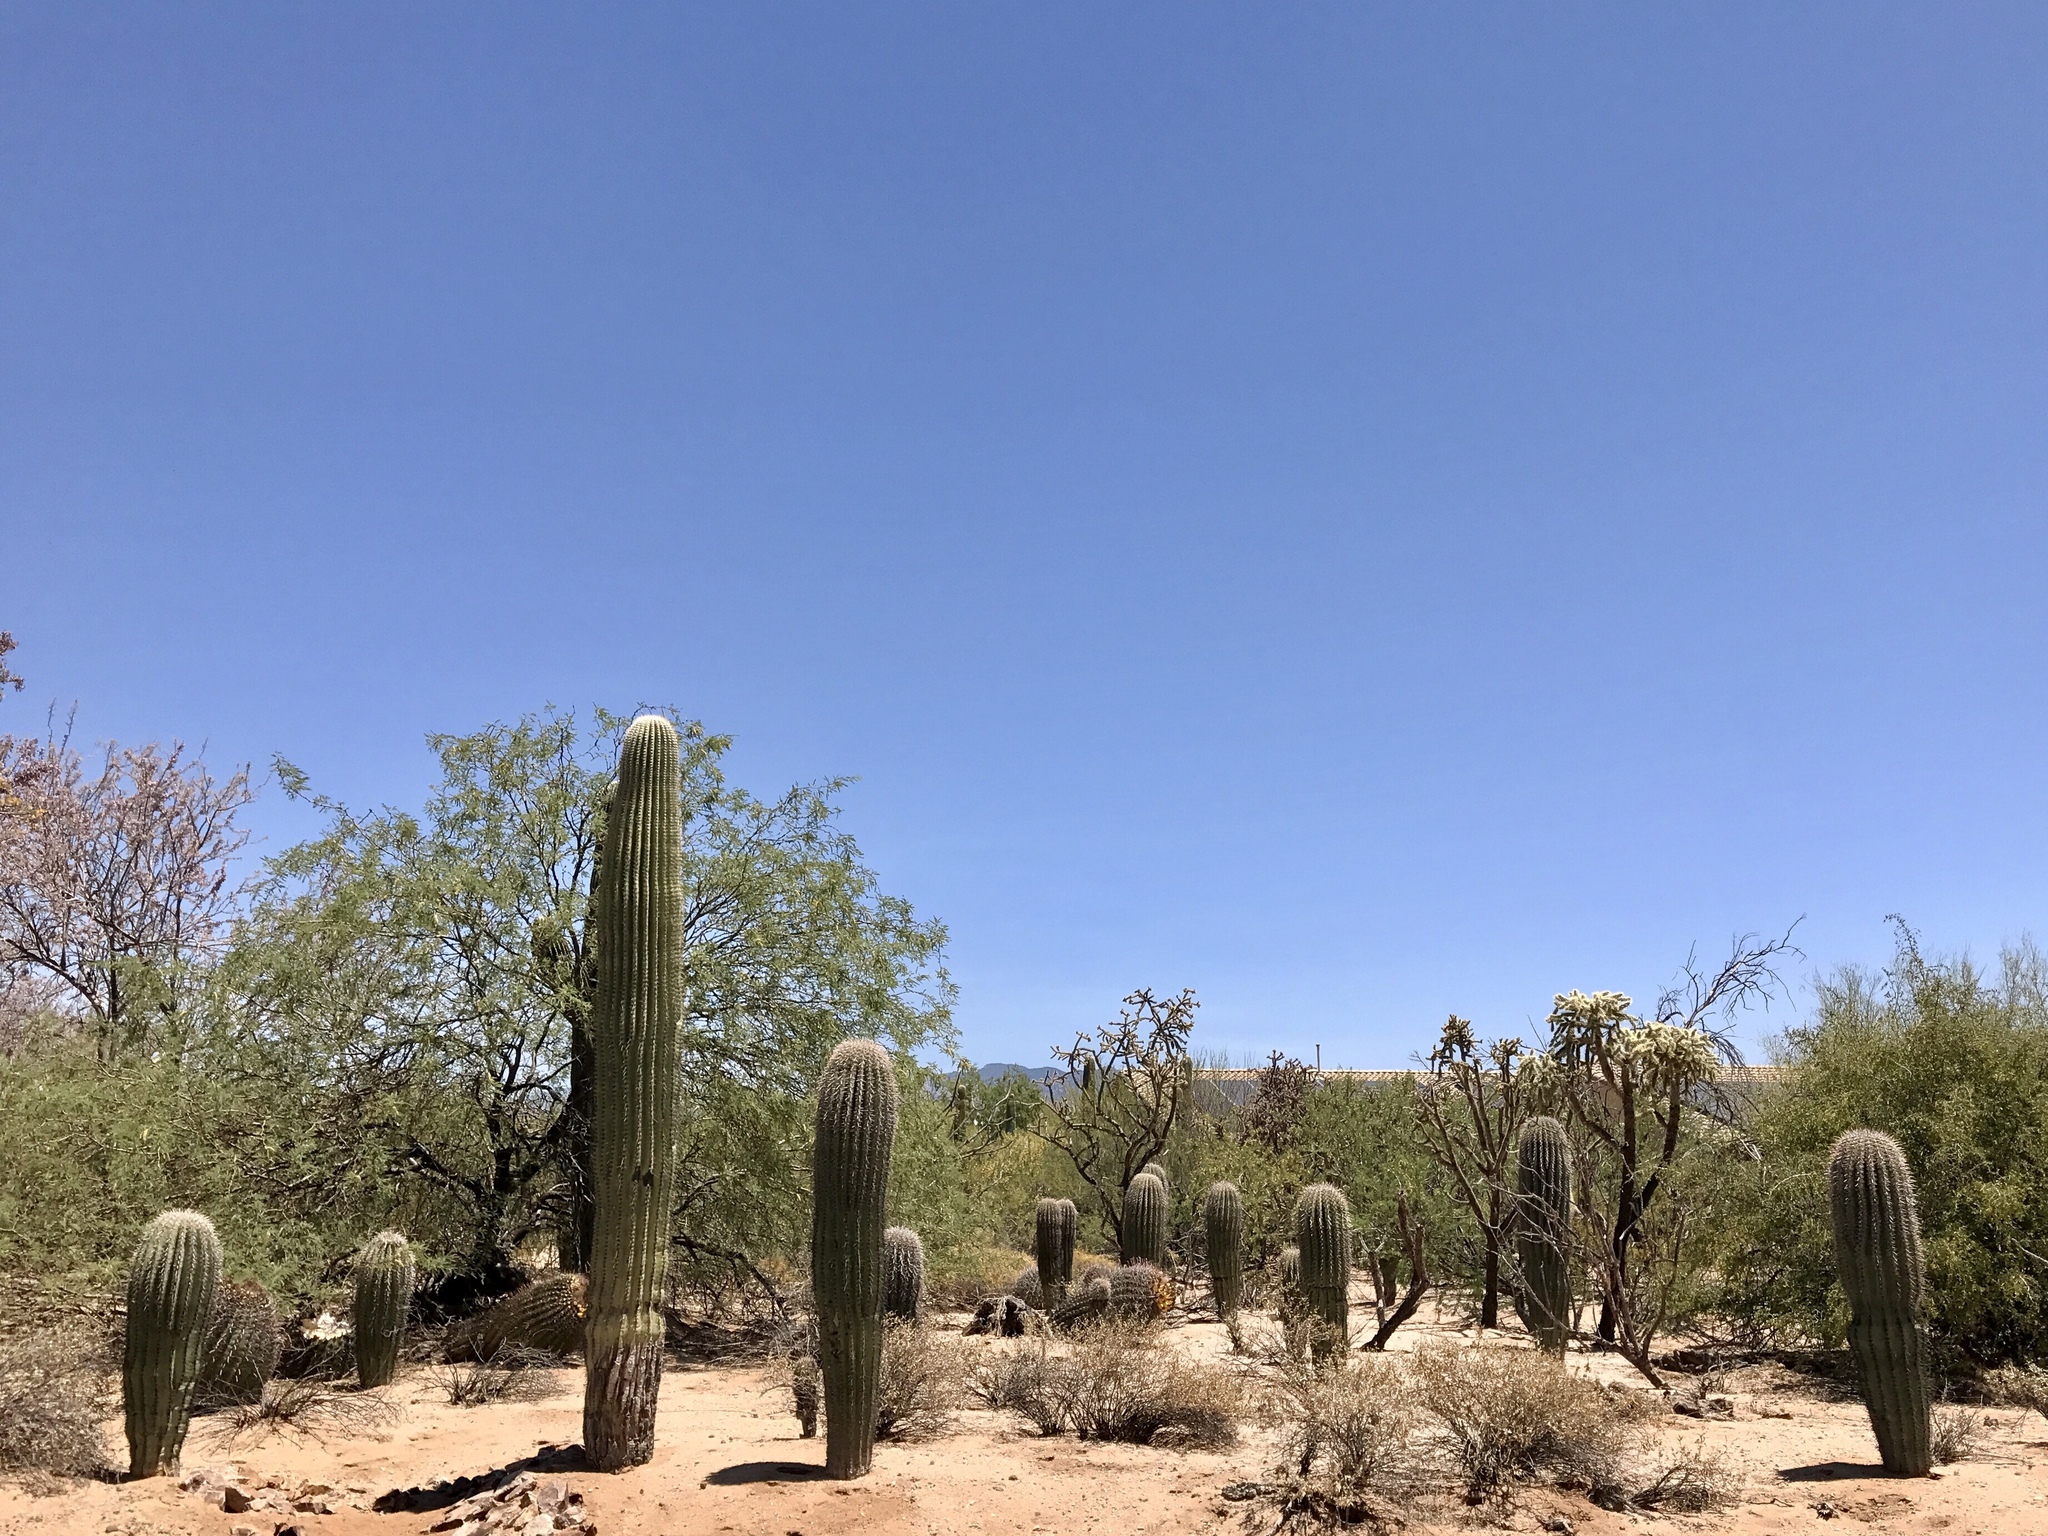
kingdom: Plantae
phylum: Tracheophyta
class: Magnoliopsida
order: Caryophyllales
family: Cactaceae
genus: Carnegiea
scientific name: Carnegiea gigantea
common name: Saguaro
